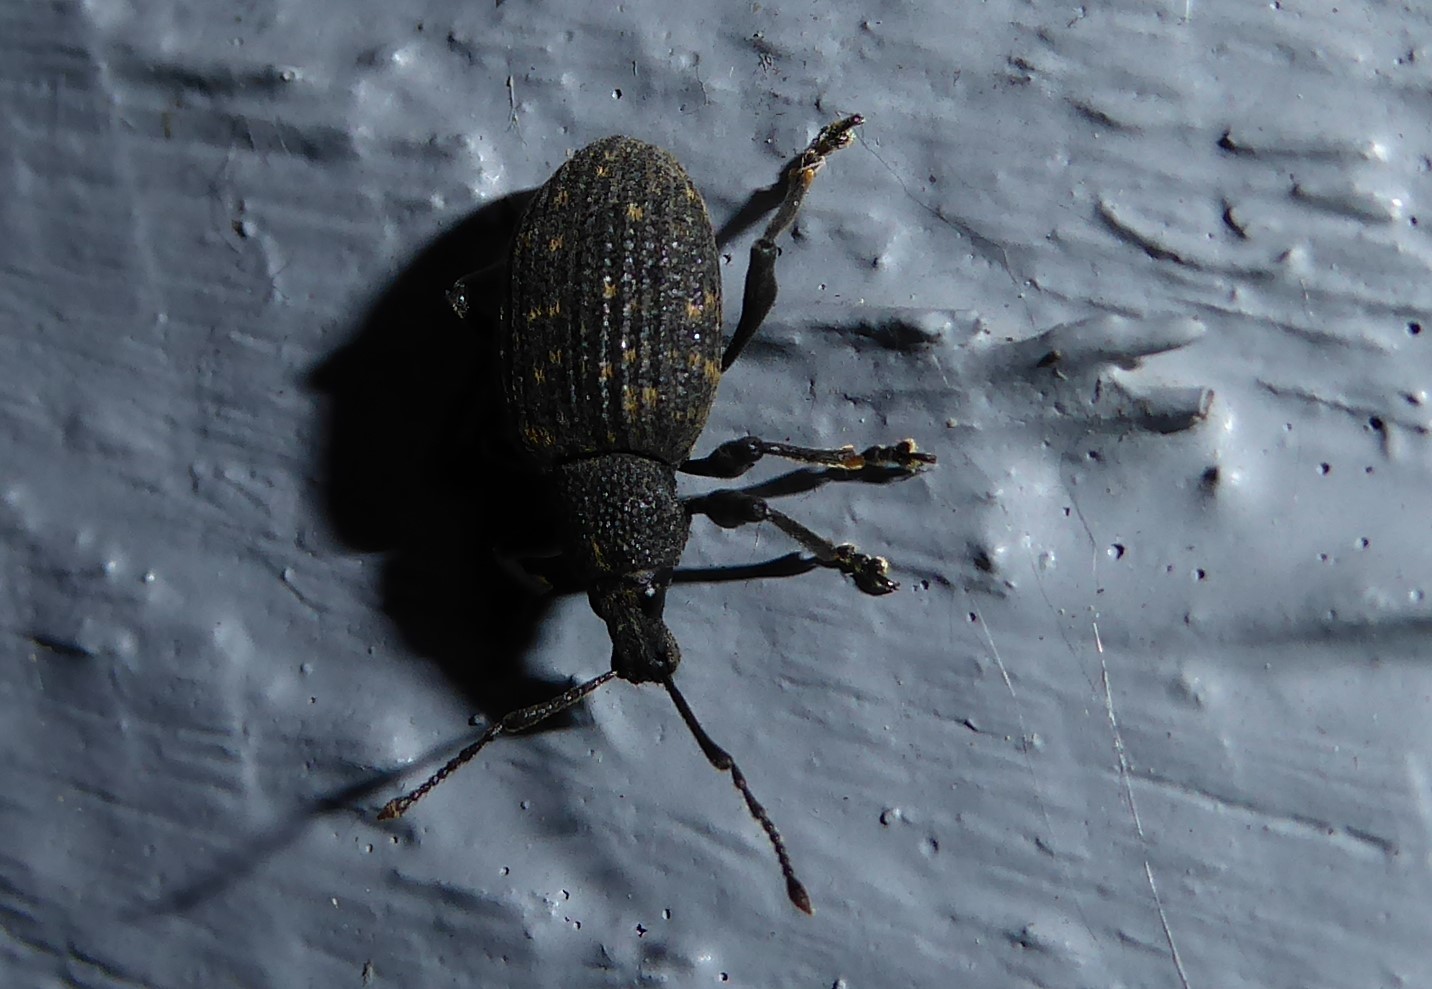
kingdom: Animalia
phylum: Arthropoda
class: Insecta
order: Coleoptera
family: Curculionidae
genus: Otiorhynchus
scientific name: Otiorhynchus sulcatus
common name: Black vine weevil
